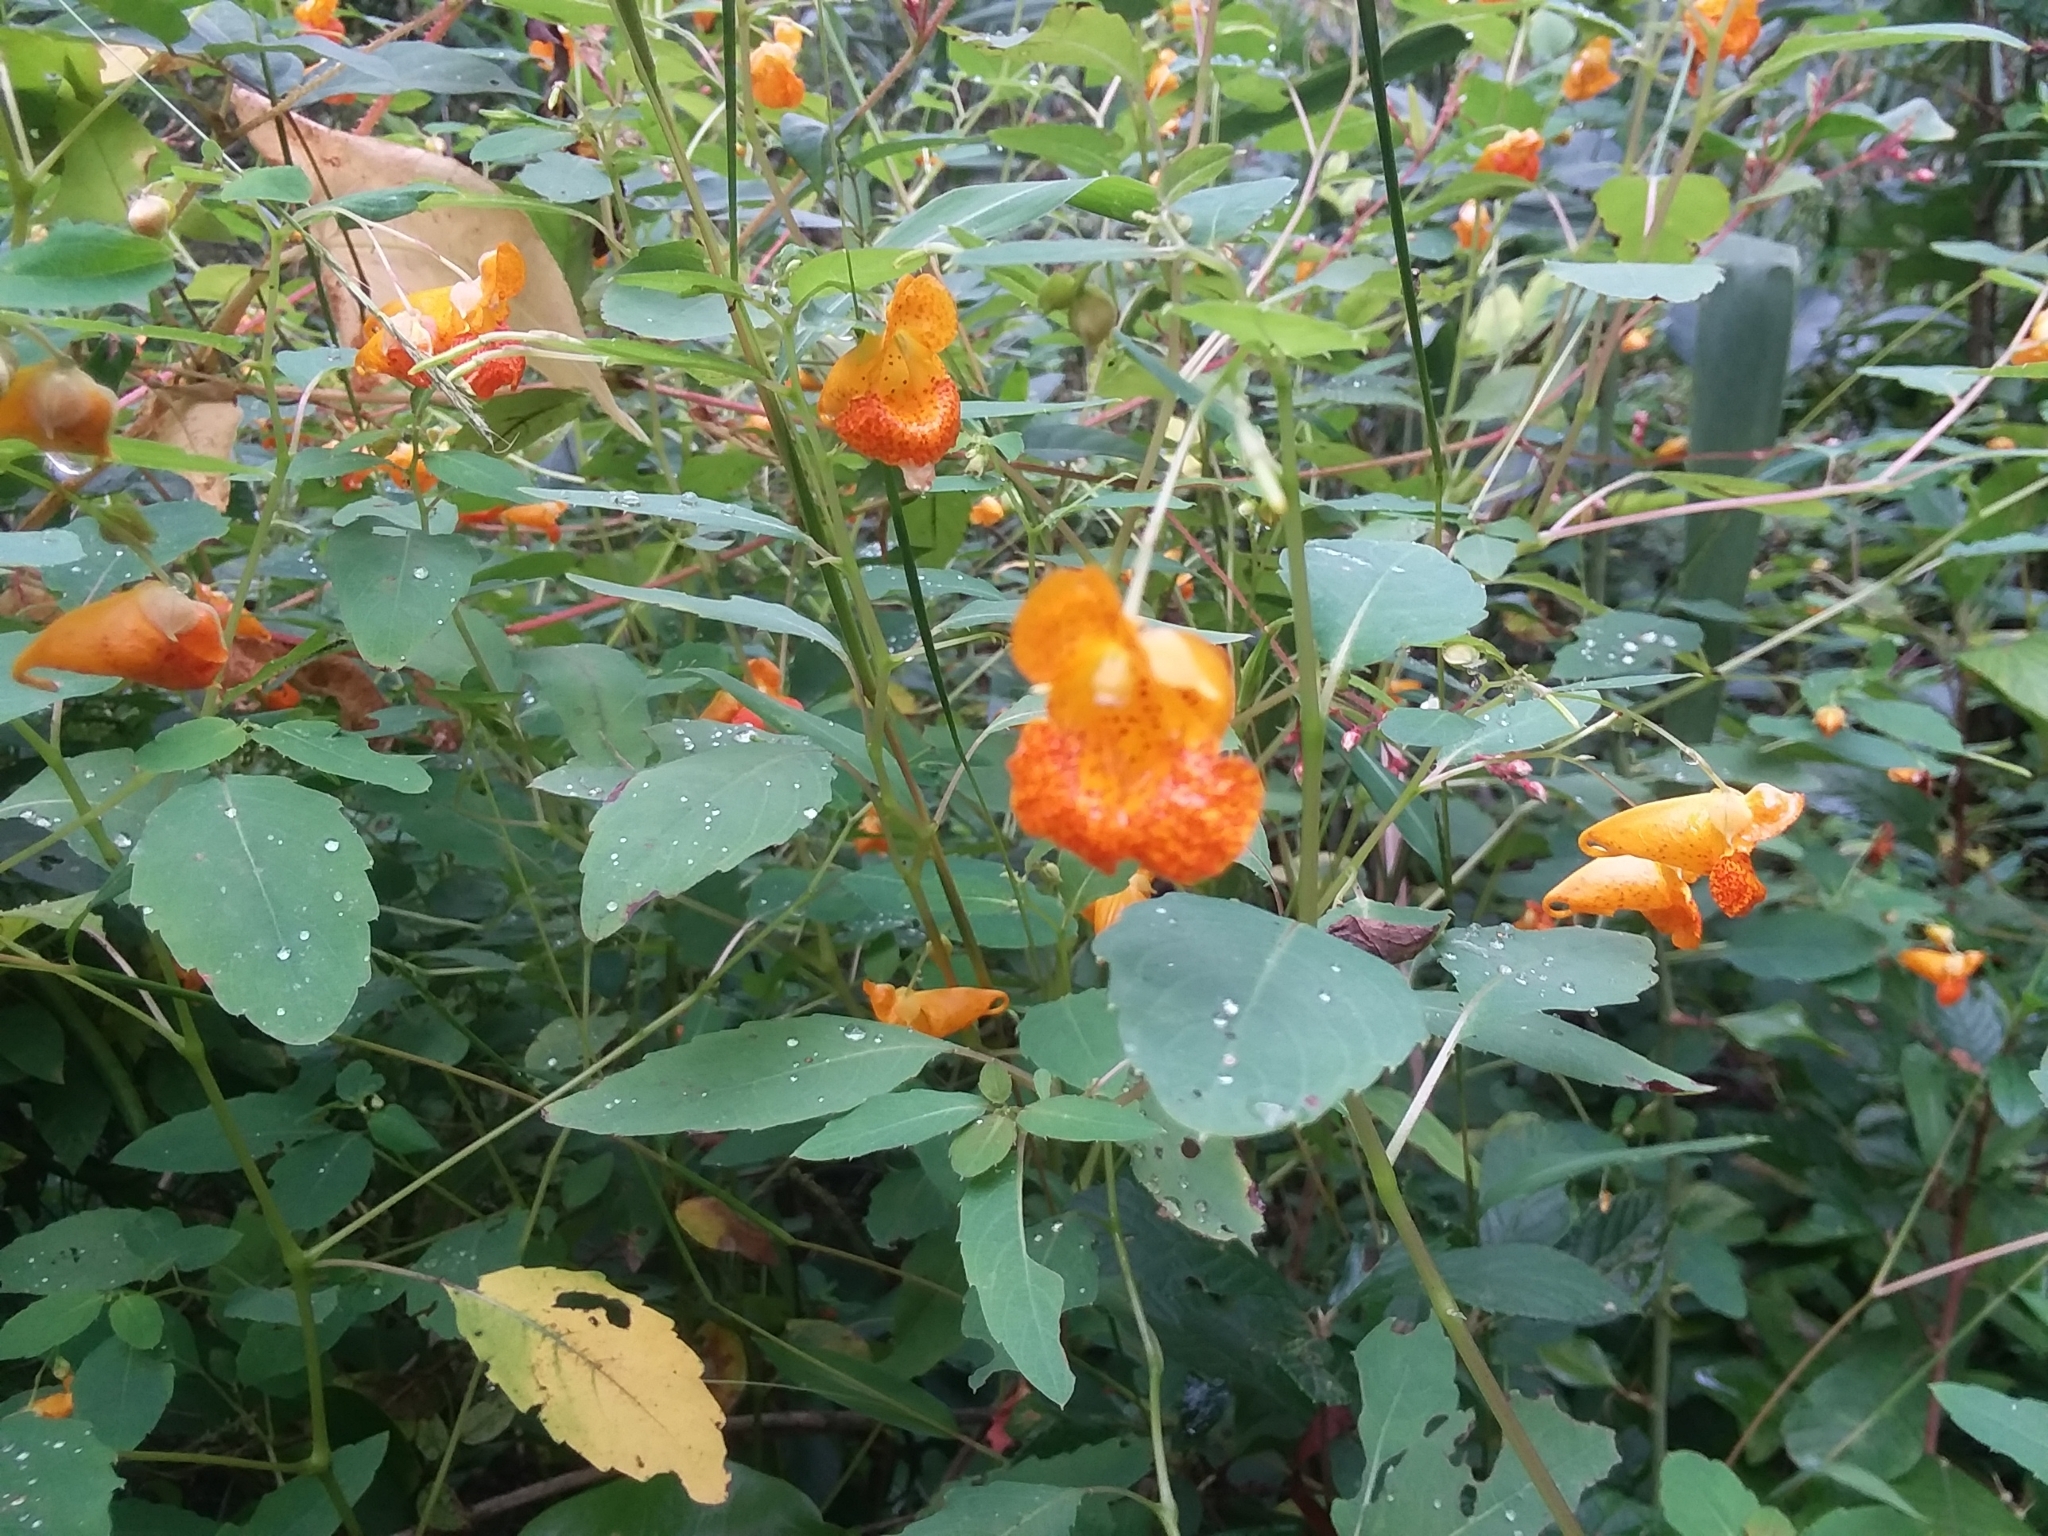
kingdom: Plantae
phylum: Tracheophyta
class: Magnoliopsida
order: Ericales
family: Balsaminaceae
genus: Impatiens
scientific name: Impatiens capensis
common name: Orange balsam
